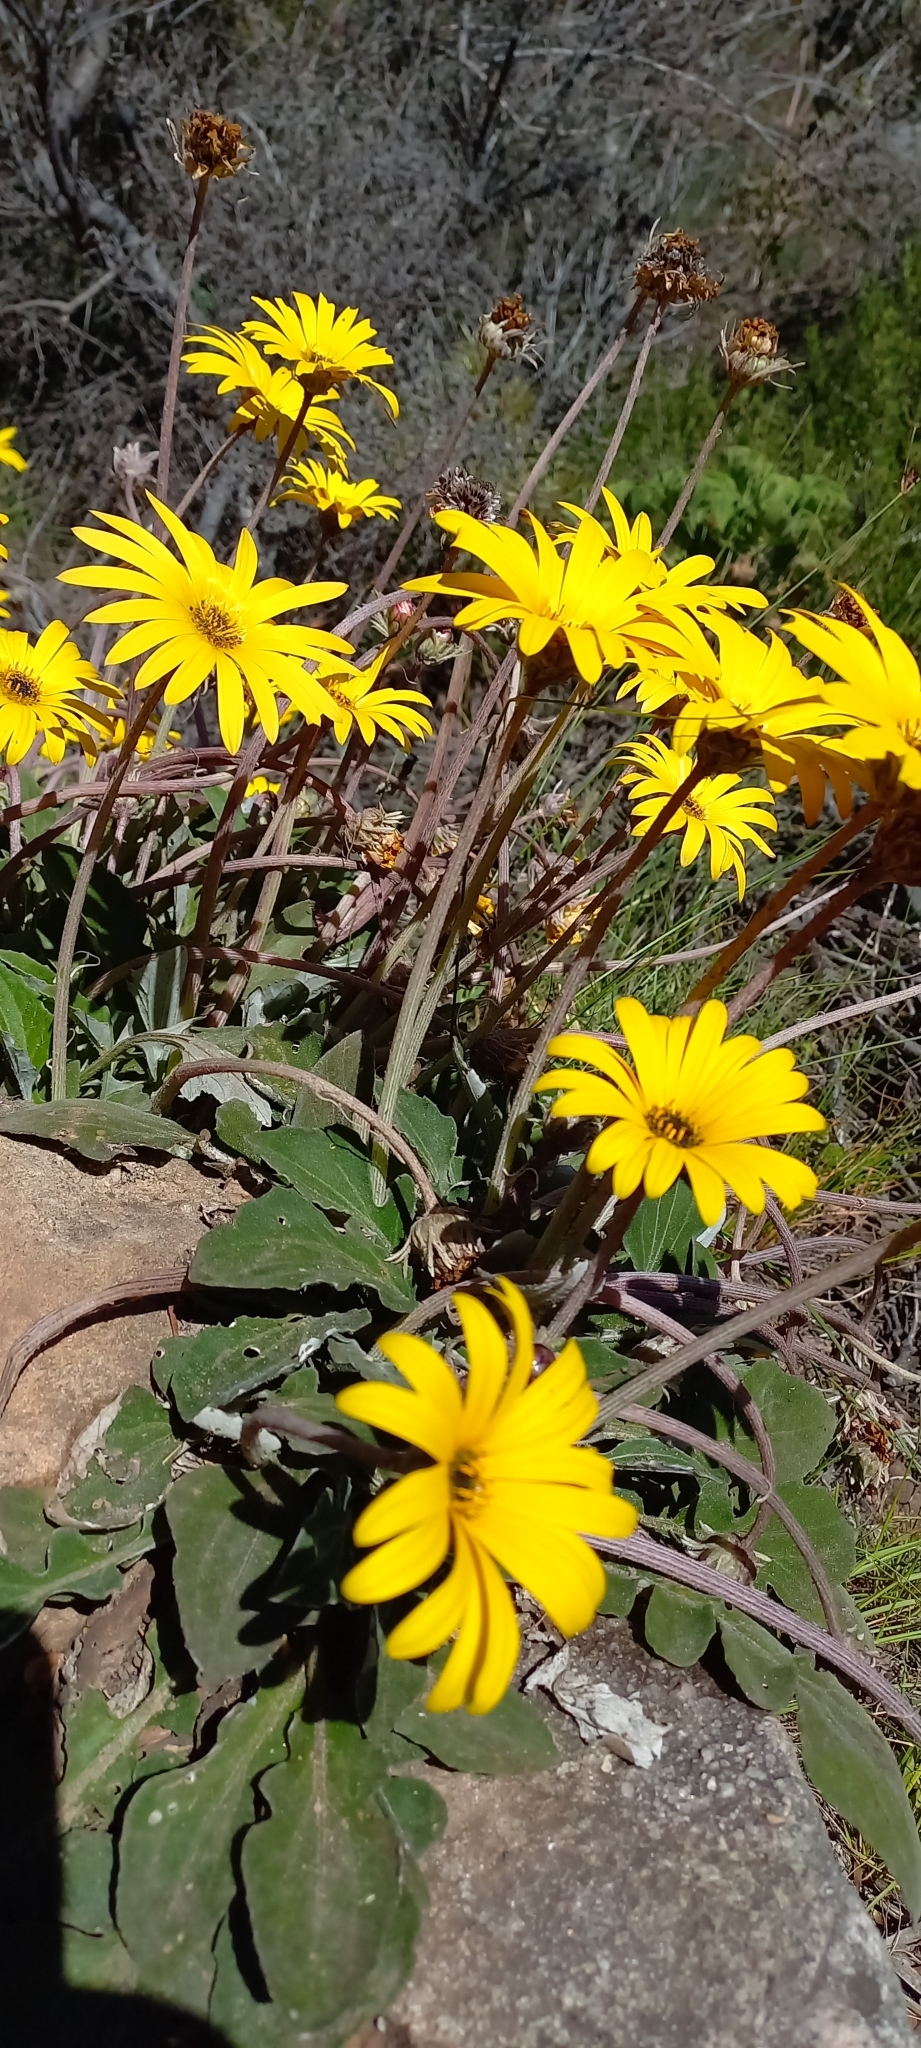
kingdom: Plantae
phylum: Tracheophyta
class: Magnoliopsida
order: Asterales
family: Asteraceae
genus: Arctotis
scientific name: Arctotis acaulis
